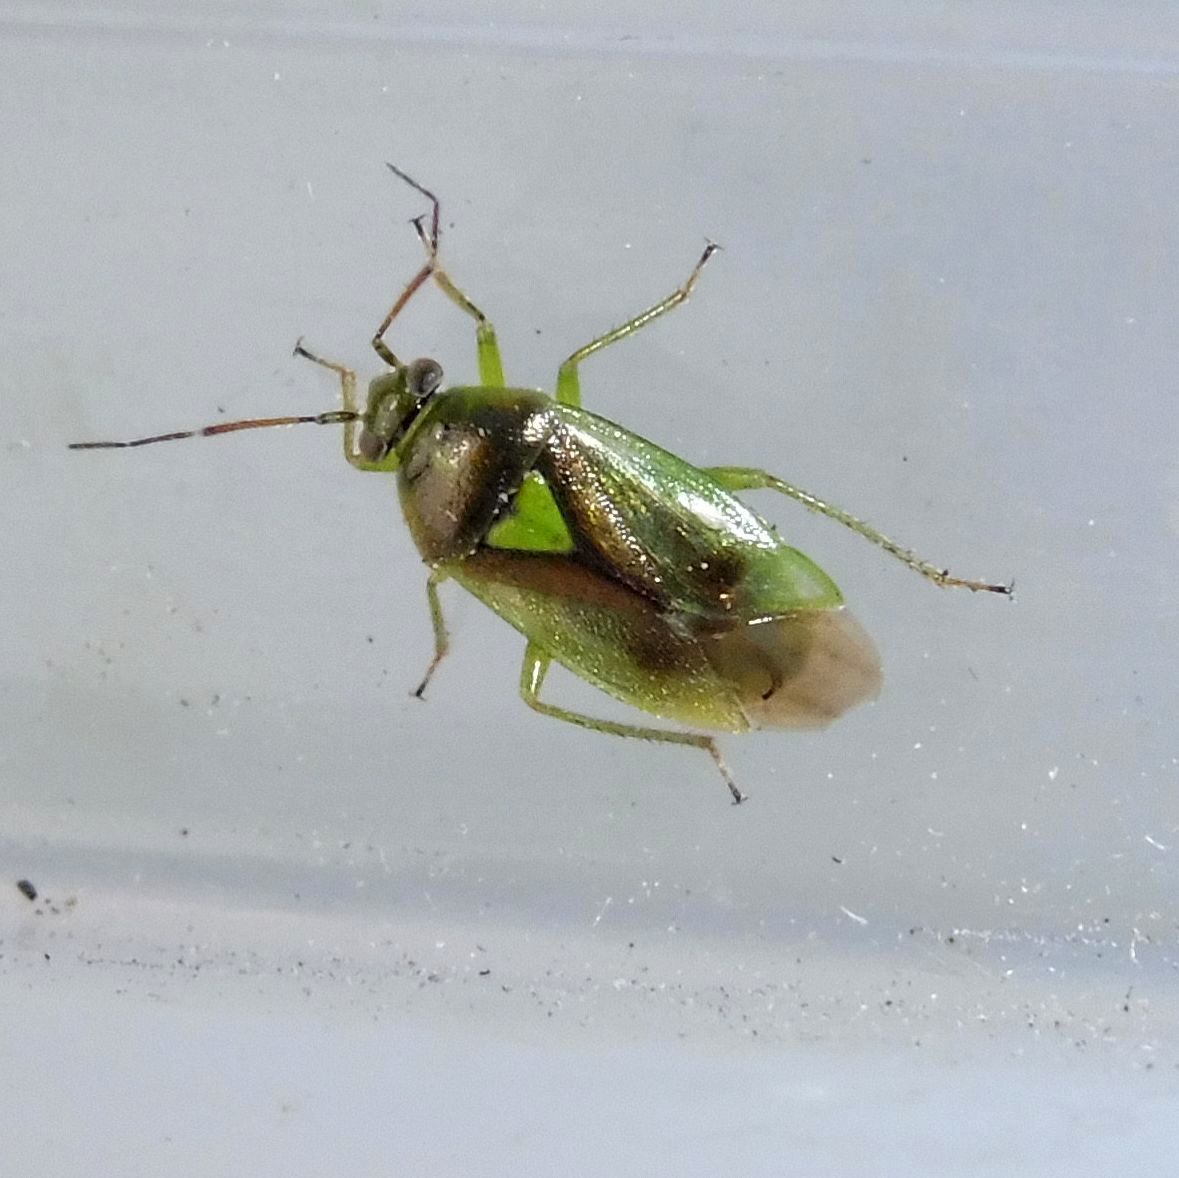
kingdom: Animalia
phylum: Arthropoda
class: Insecta
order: Hemiptera
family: Miridae
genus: Orthops
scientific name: Orthops campestris
